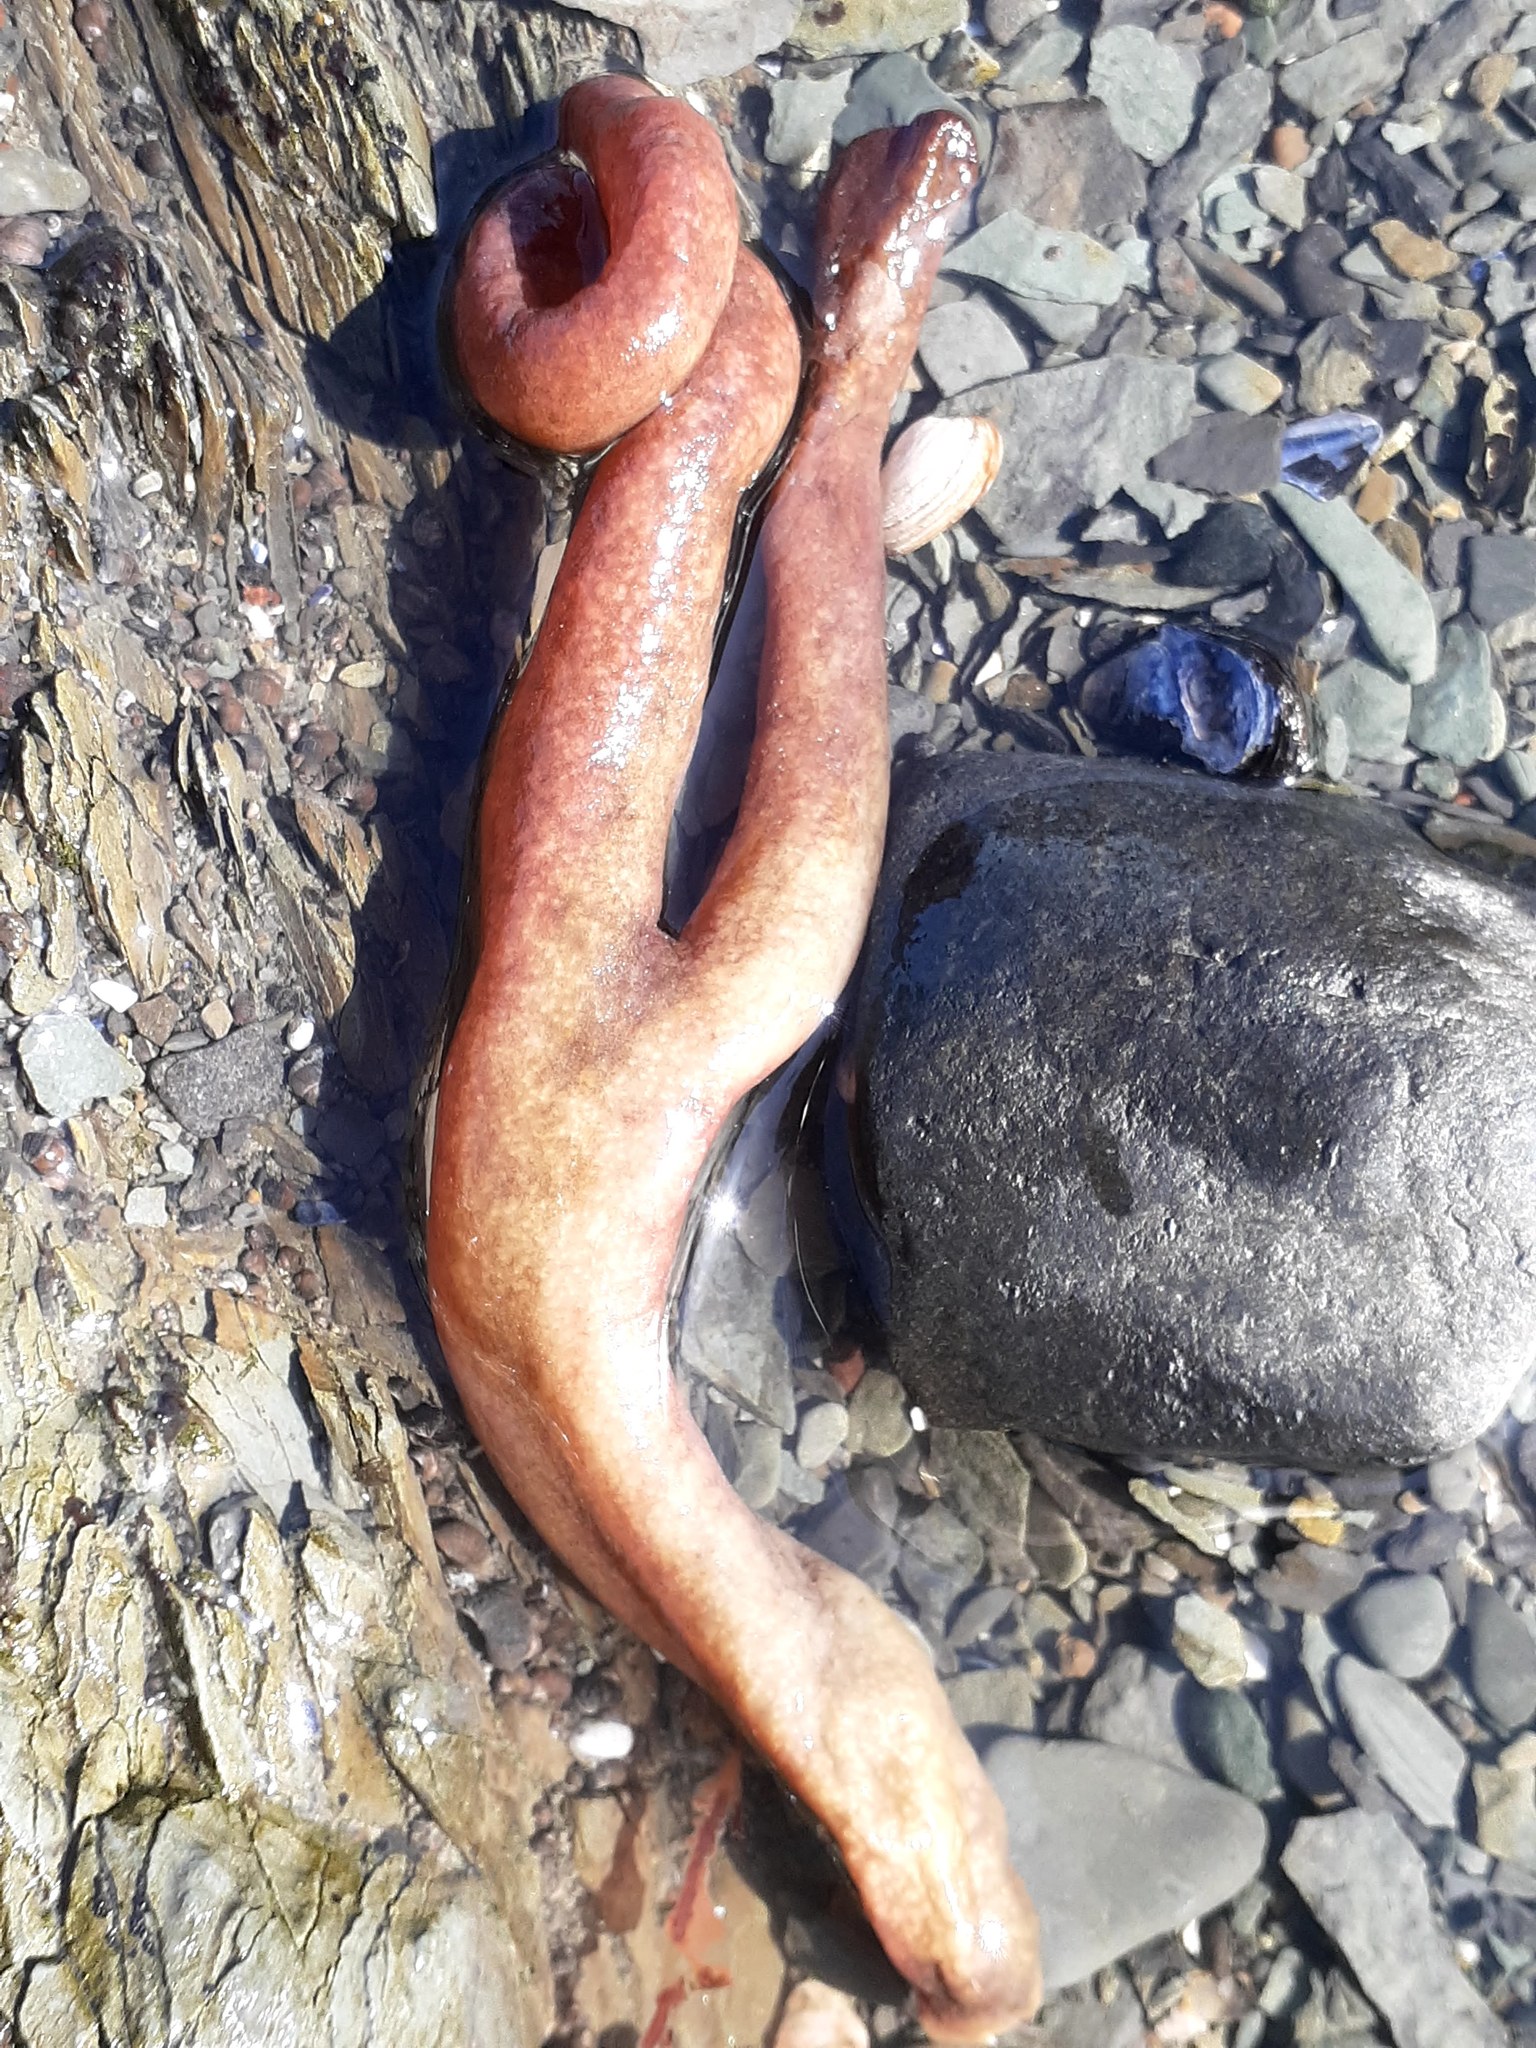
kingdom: Animalia
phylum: Bryozoa
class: Gymnolaemata
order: Ctenostomatida
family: Alcyonidiidae
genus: Alcyonidium
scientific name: Alcyonidium pachydermatum
